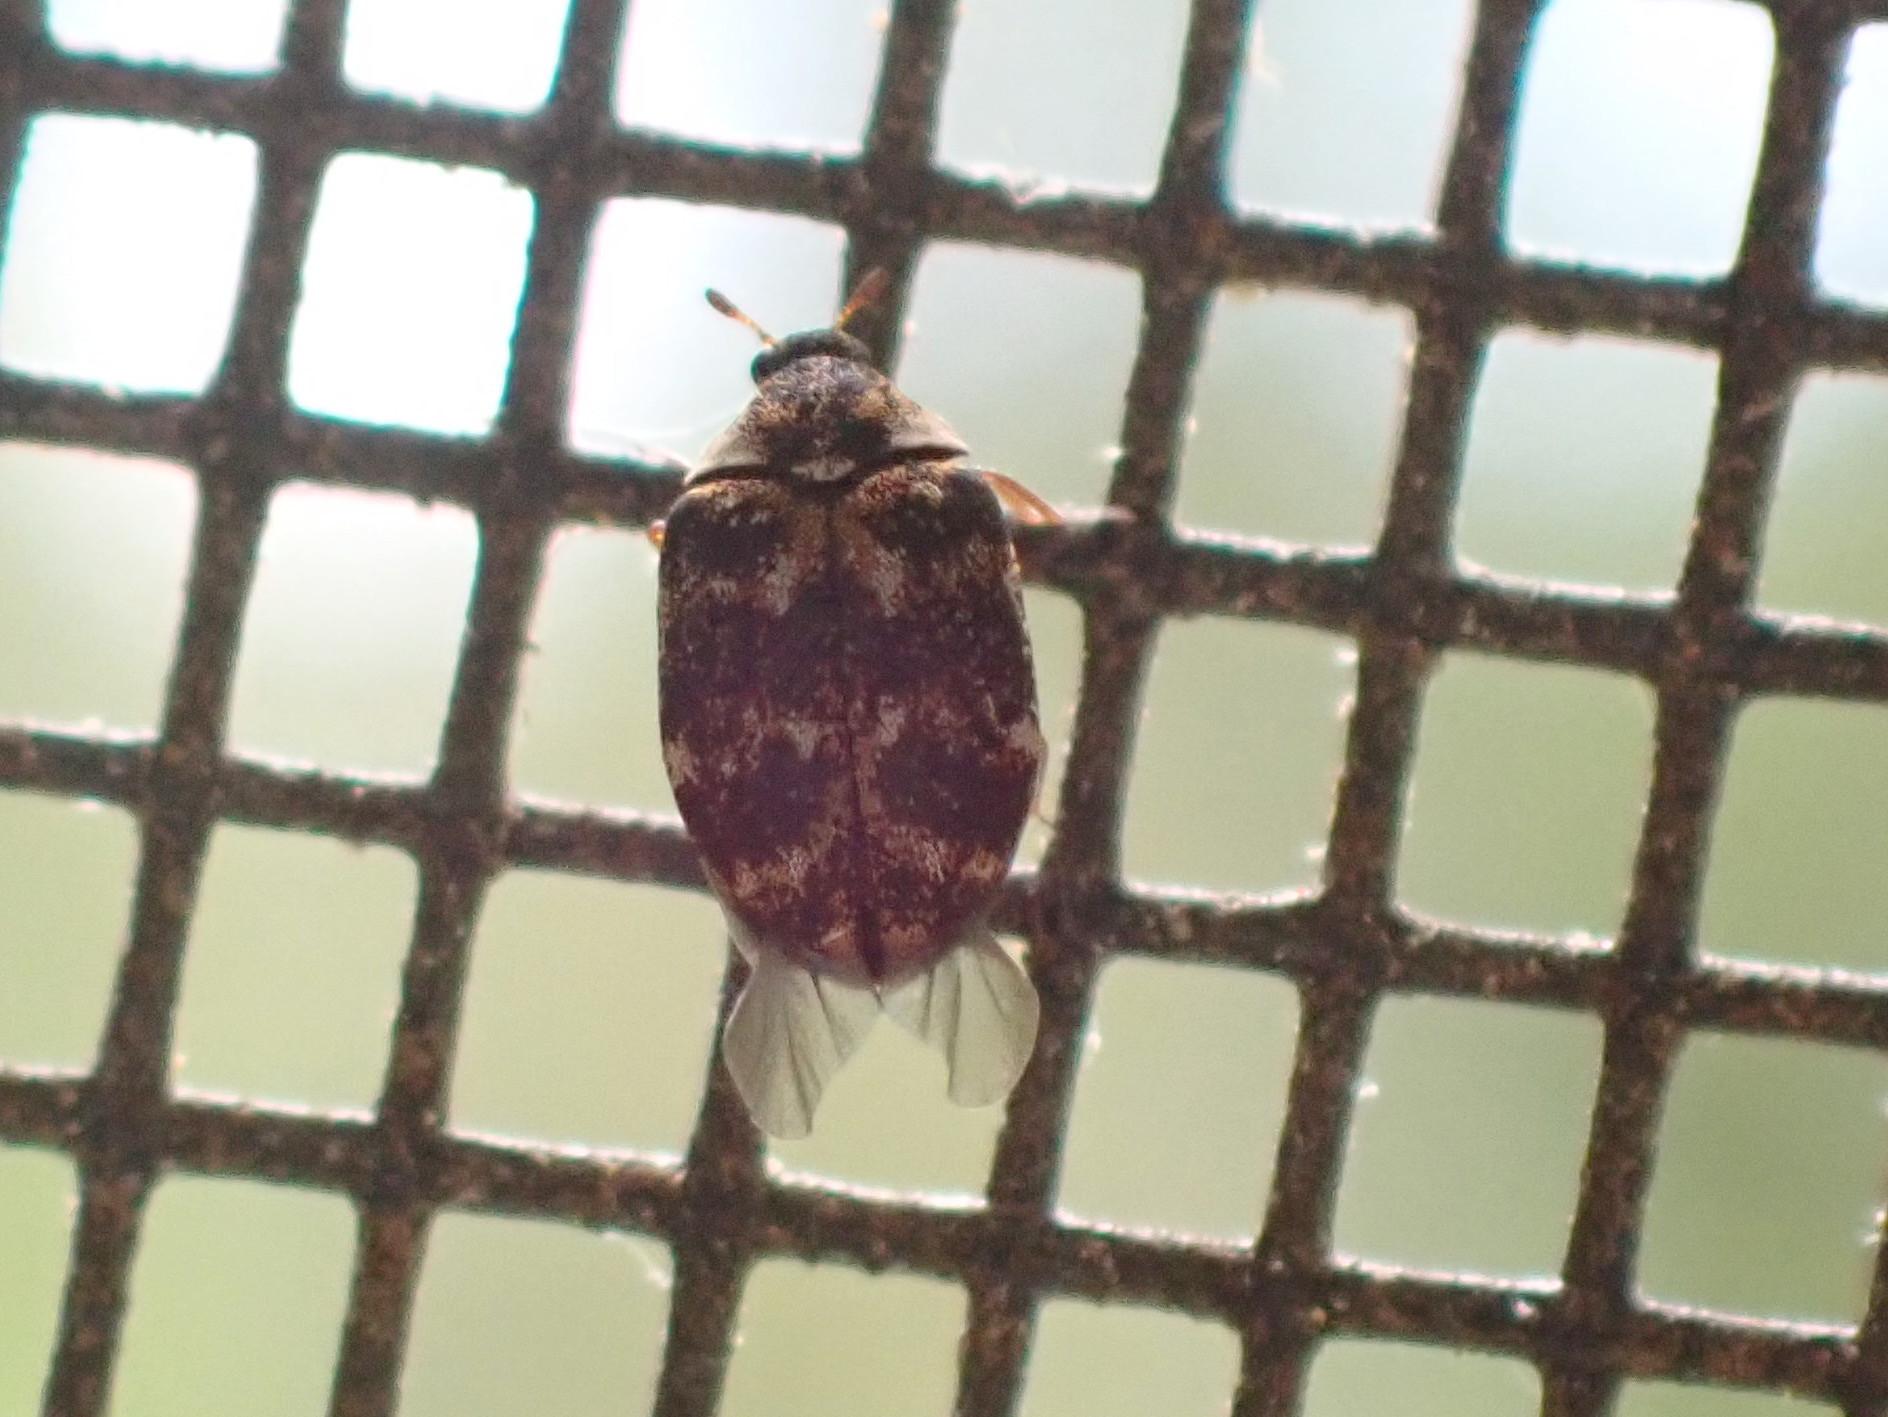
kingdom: Animalia
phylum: Arthropoda
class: Insecta
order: Coleoptera
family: Dermestidae
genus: Anthrenus
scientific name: Anthrenus museorum
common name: Museum beetle
